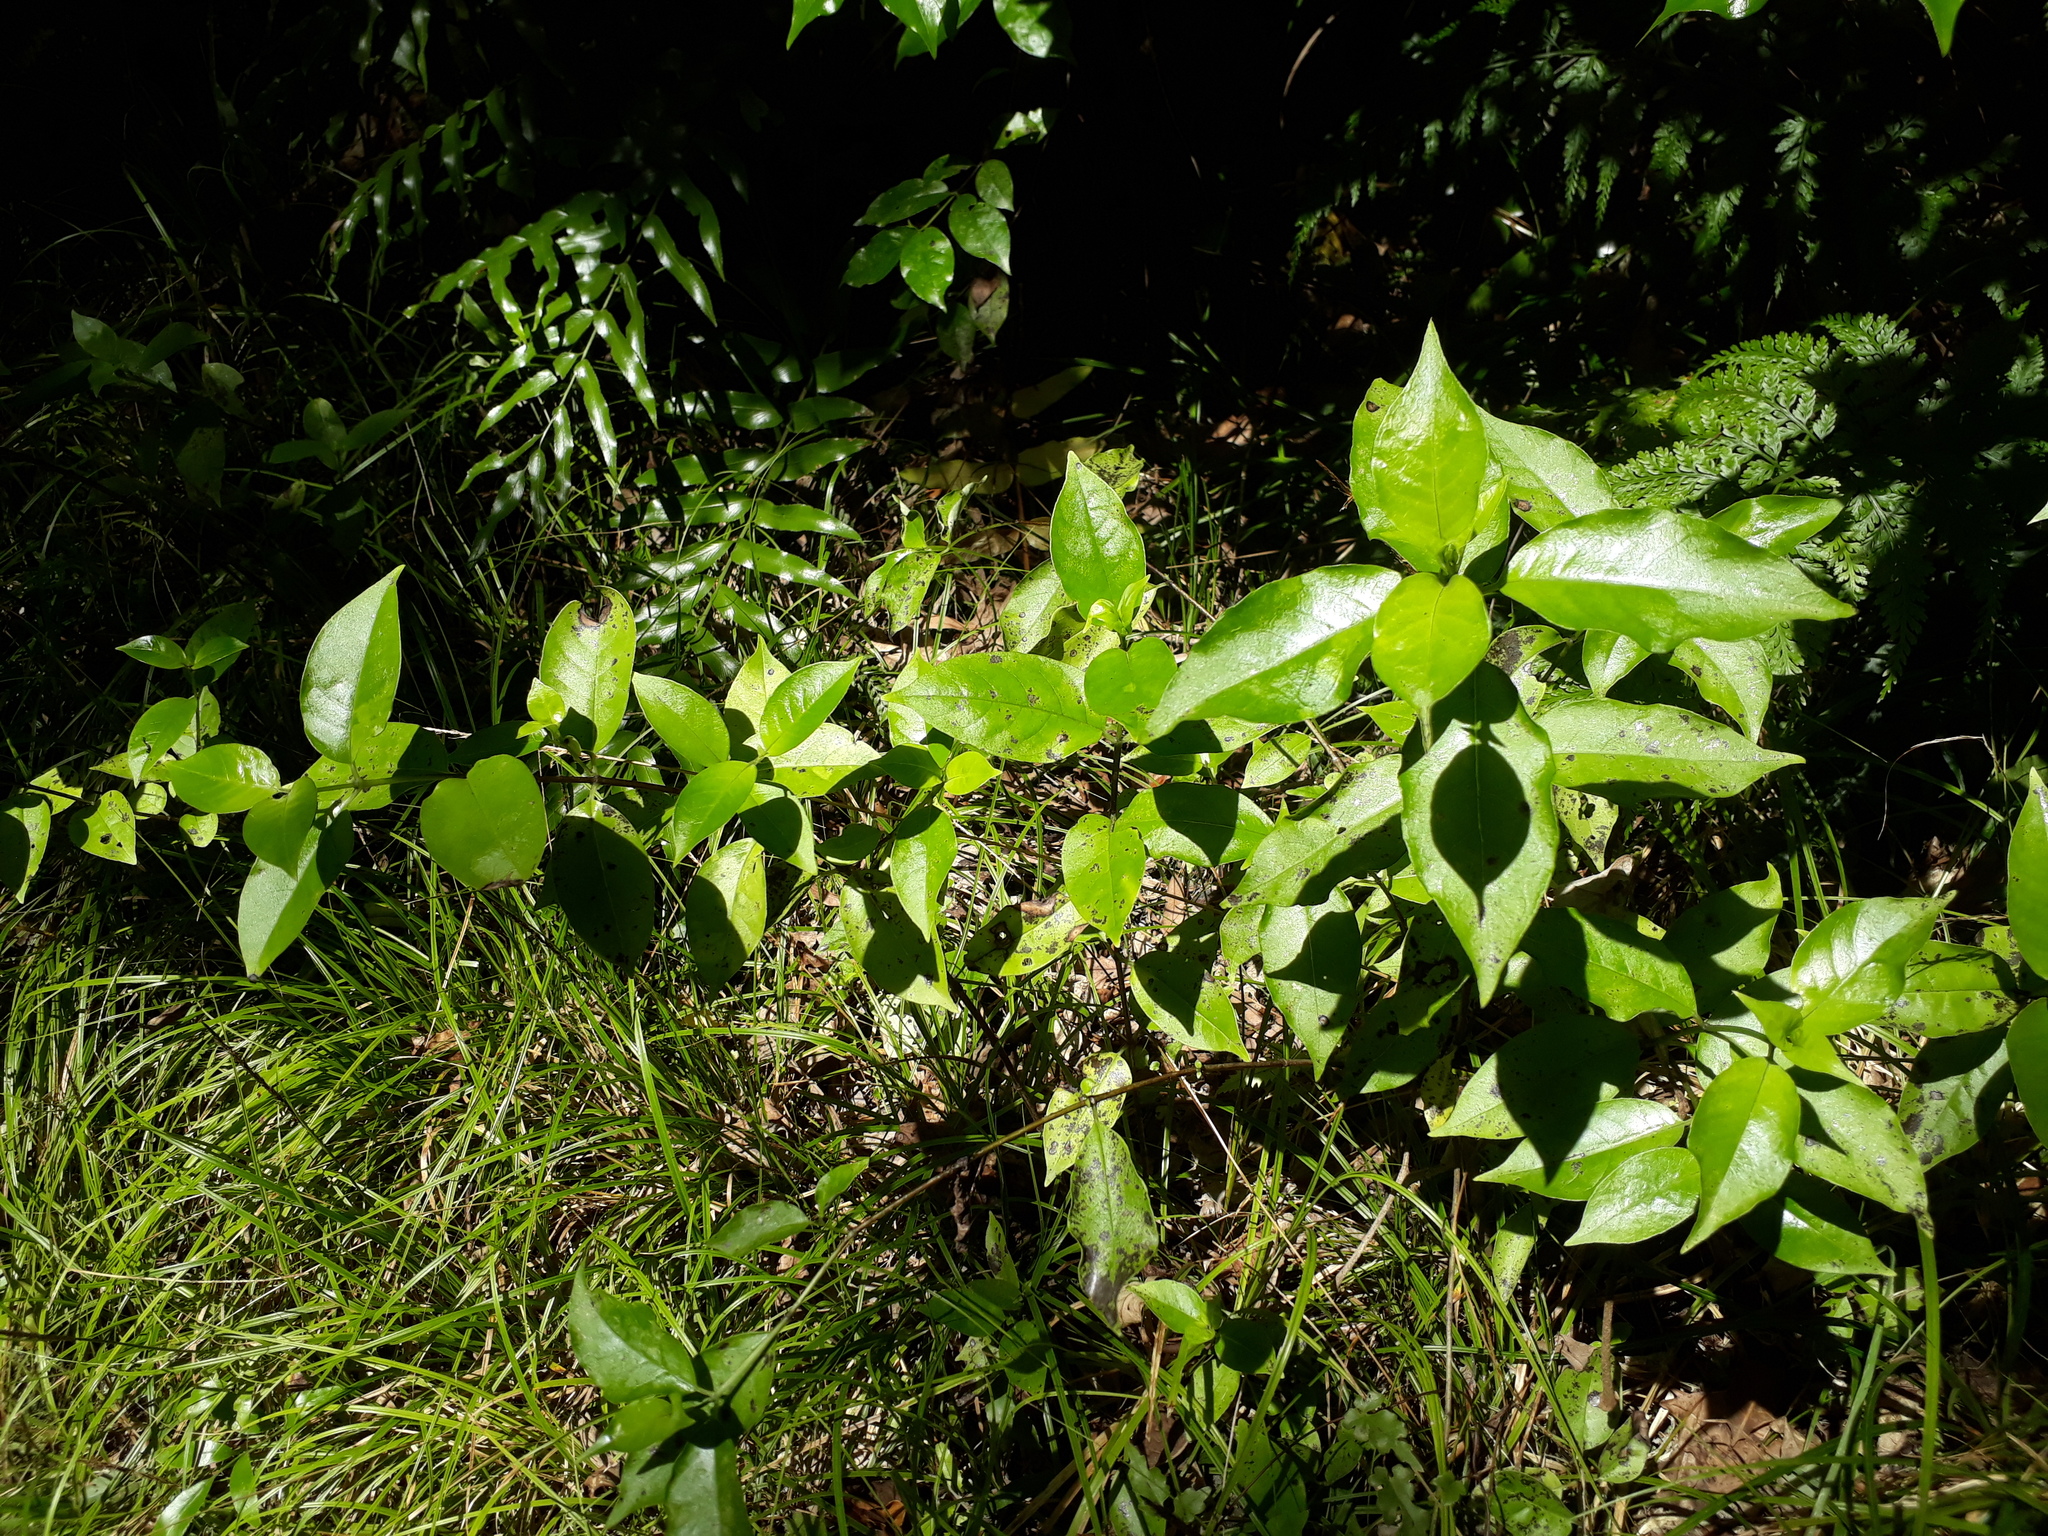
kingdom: Plantae
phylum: Tracheophyta
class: Magnoliopsida
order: Gentianales
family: Loganiaceae
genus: Geniostoma
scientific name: Geniostoma ligustrifolium
